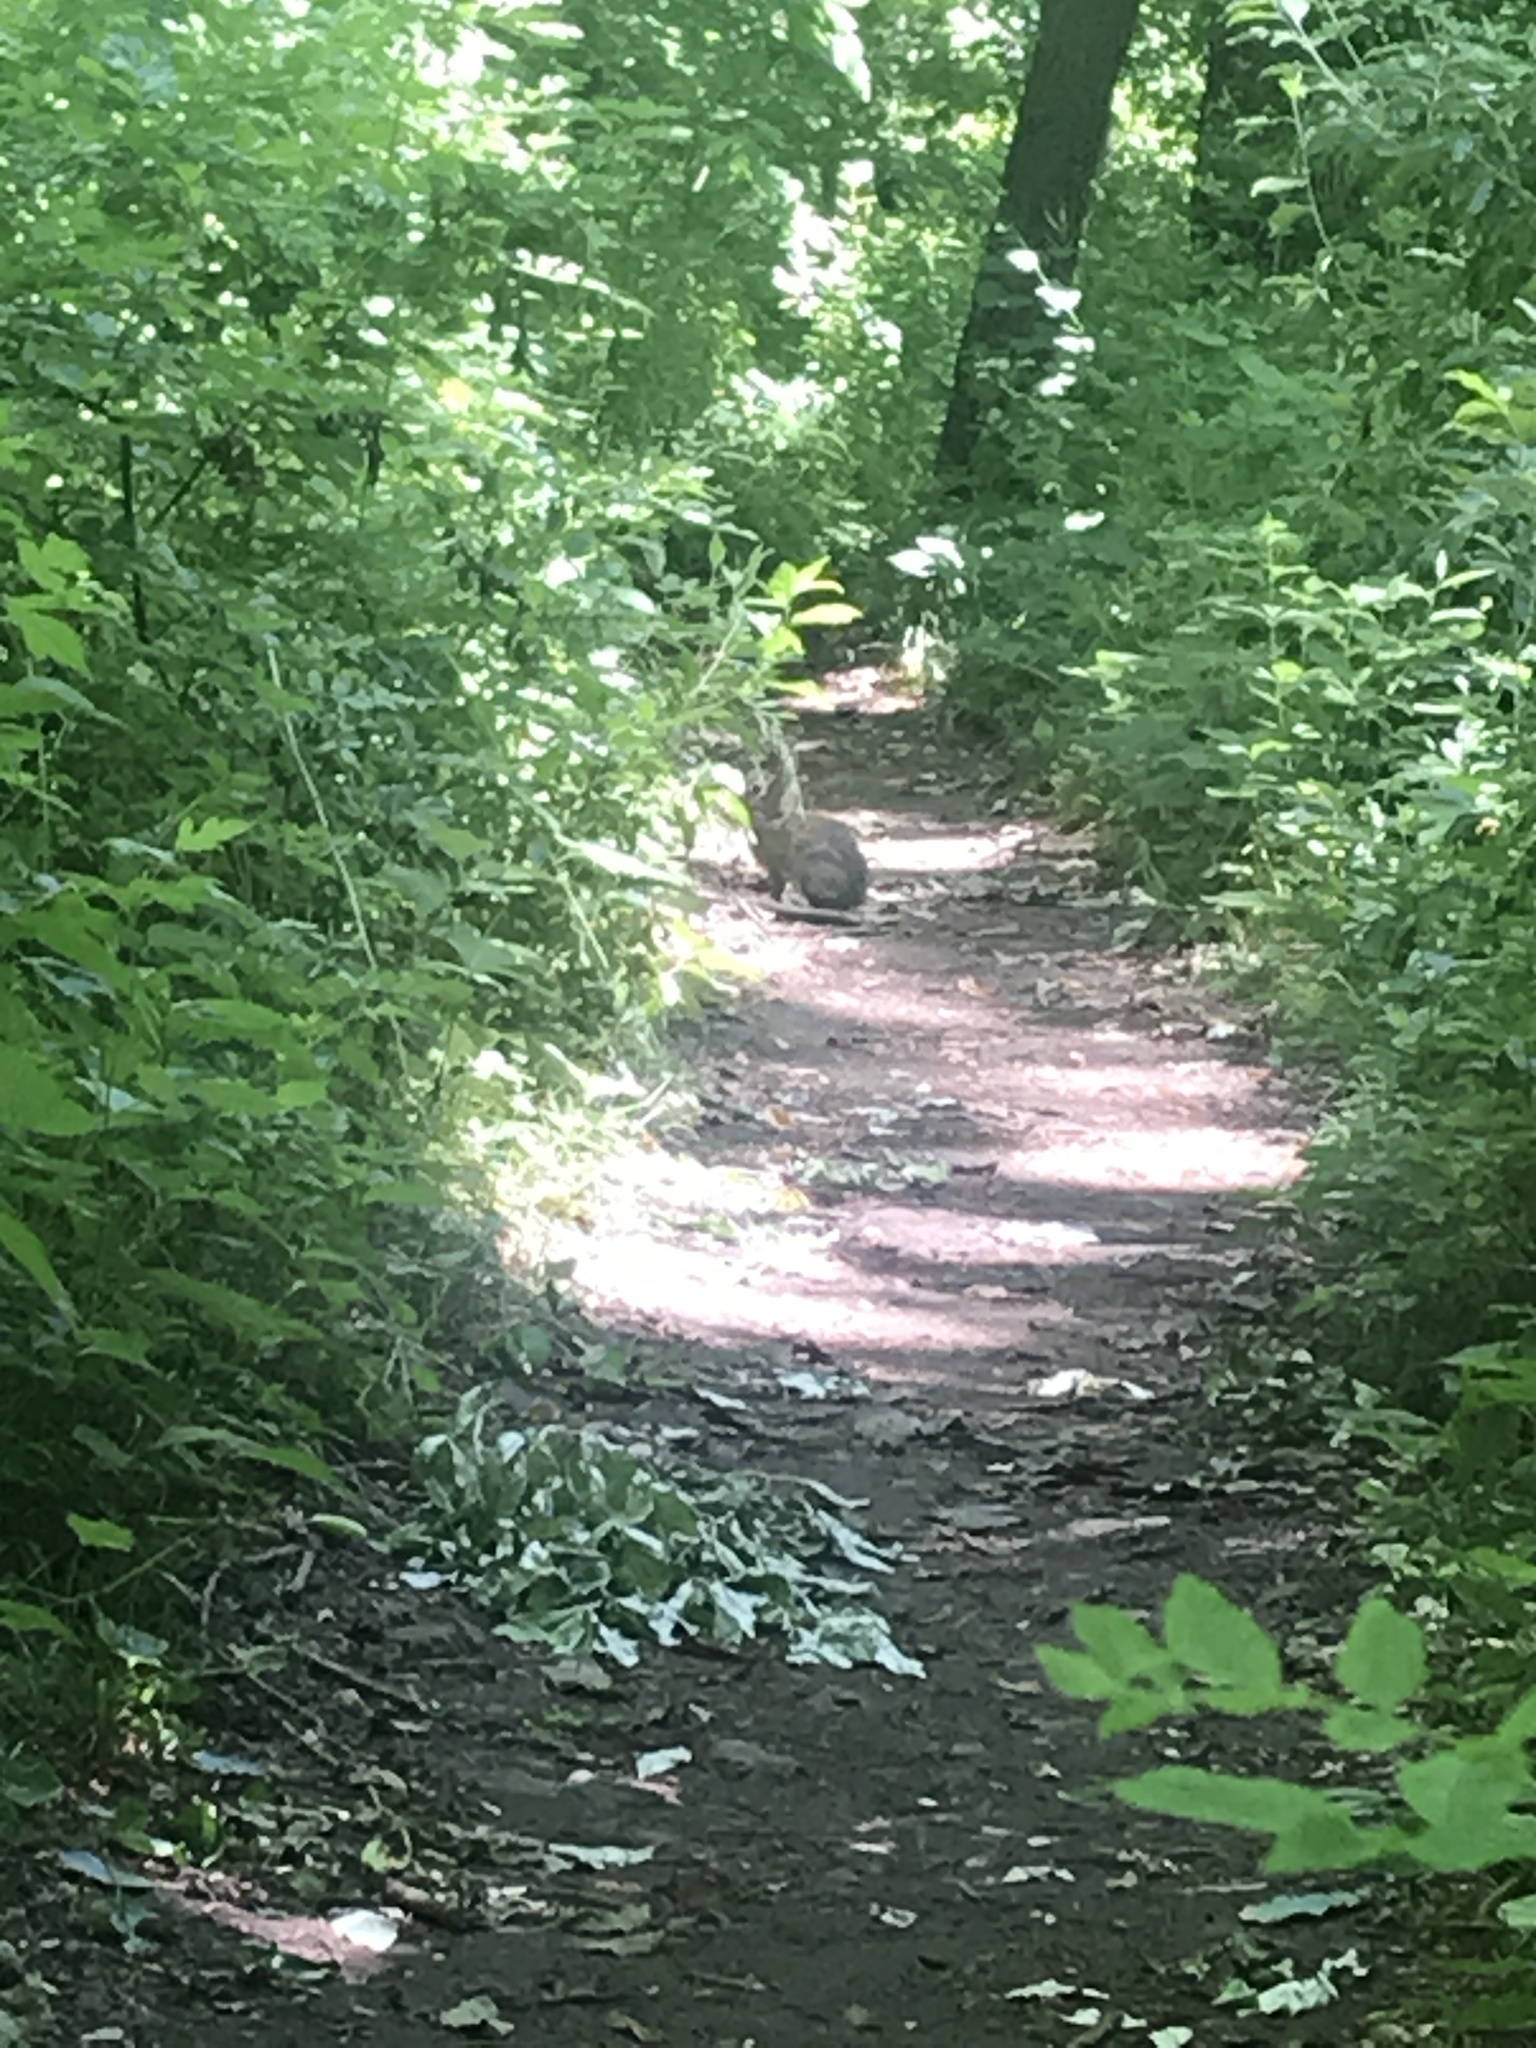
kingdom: Animalia
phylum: Chordata
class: Mammalia
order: Lagomorpha
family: Leporidae
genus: Sylvilagus
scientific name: Sylvilagus floridanus
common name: Eastern cottontail
